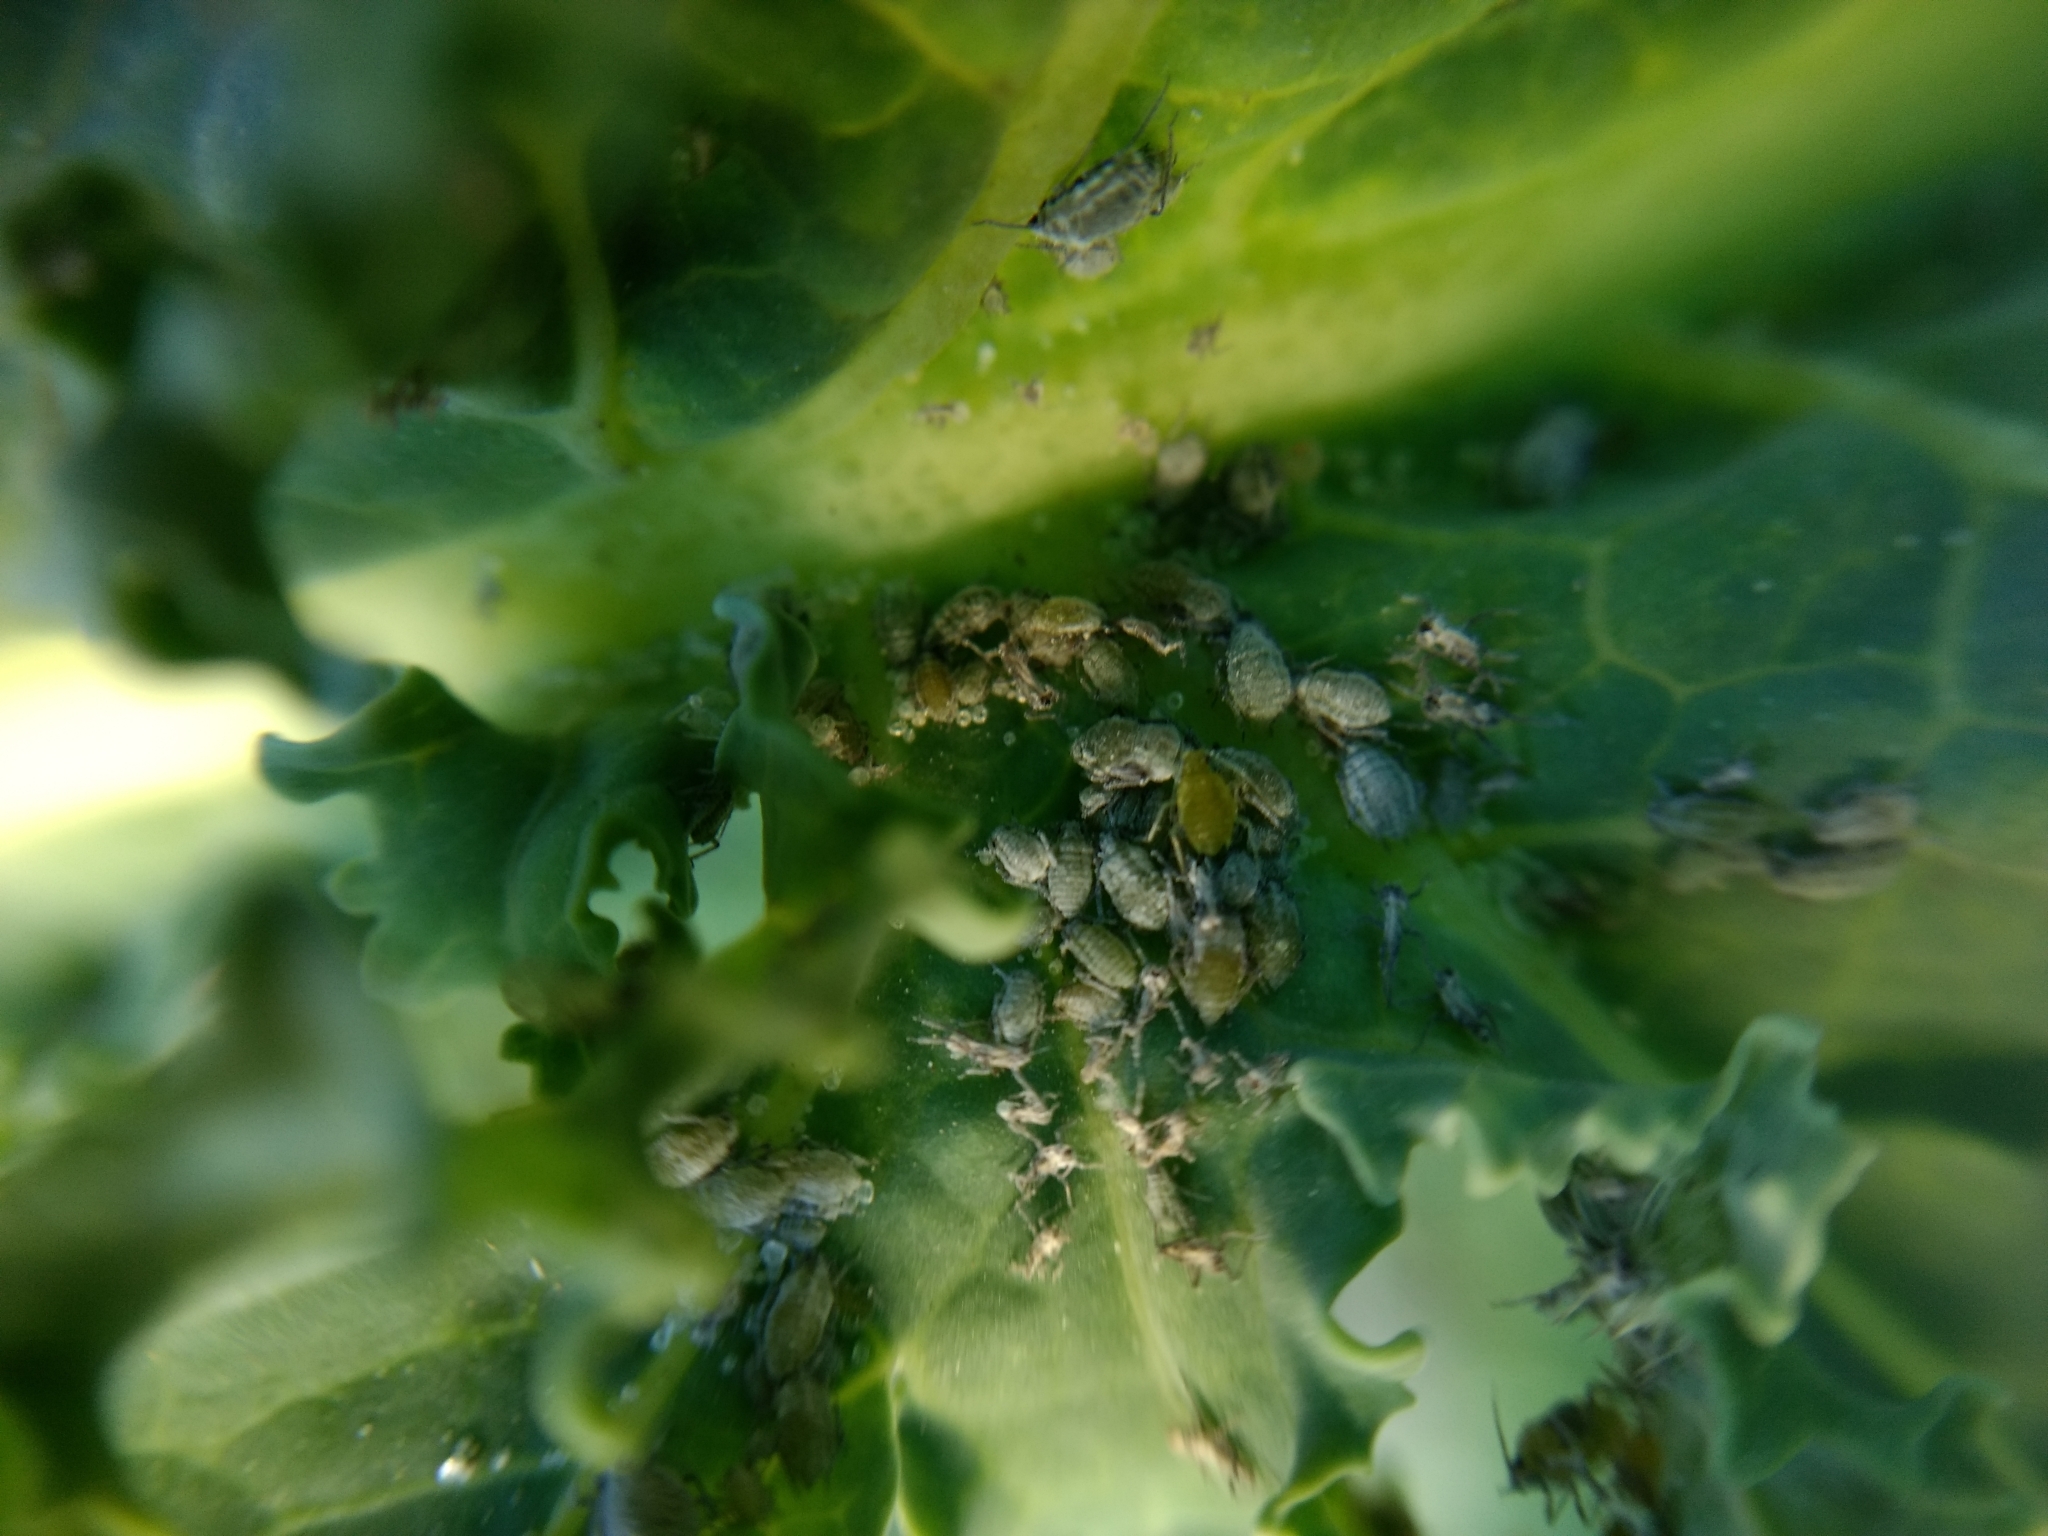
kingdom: Animalia
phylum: Arthropoda
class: Insecta
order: Hemiptera
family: Aphididae
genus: Brevicoryne
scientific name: Brevicoryne brassicae
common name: Cabbage aphid
